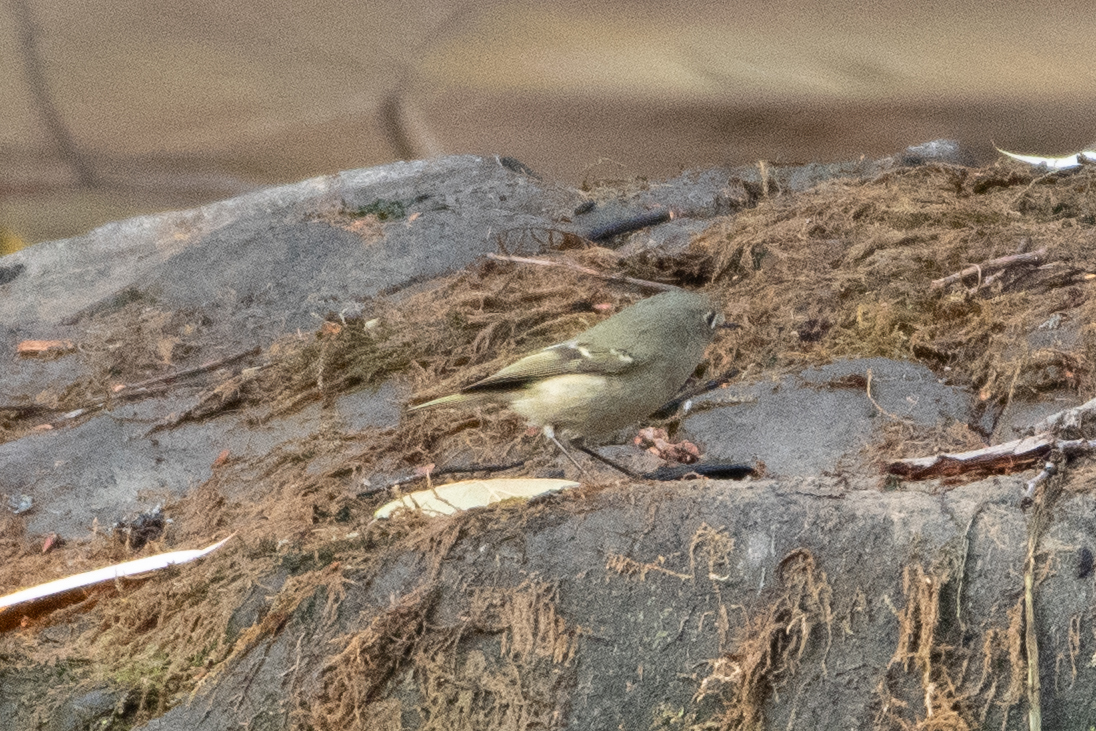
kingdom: Animalia
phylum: Chordata
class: Aves
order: Passeriformes
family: Regulidae
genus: Regulus
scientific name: Regulus calendula
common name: Ruby-crowned kinglet
